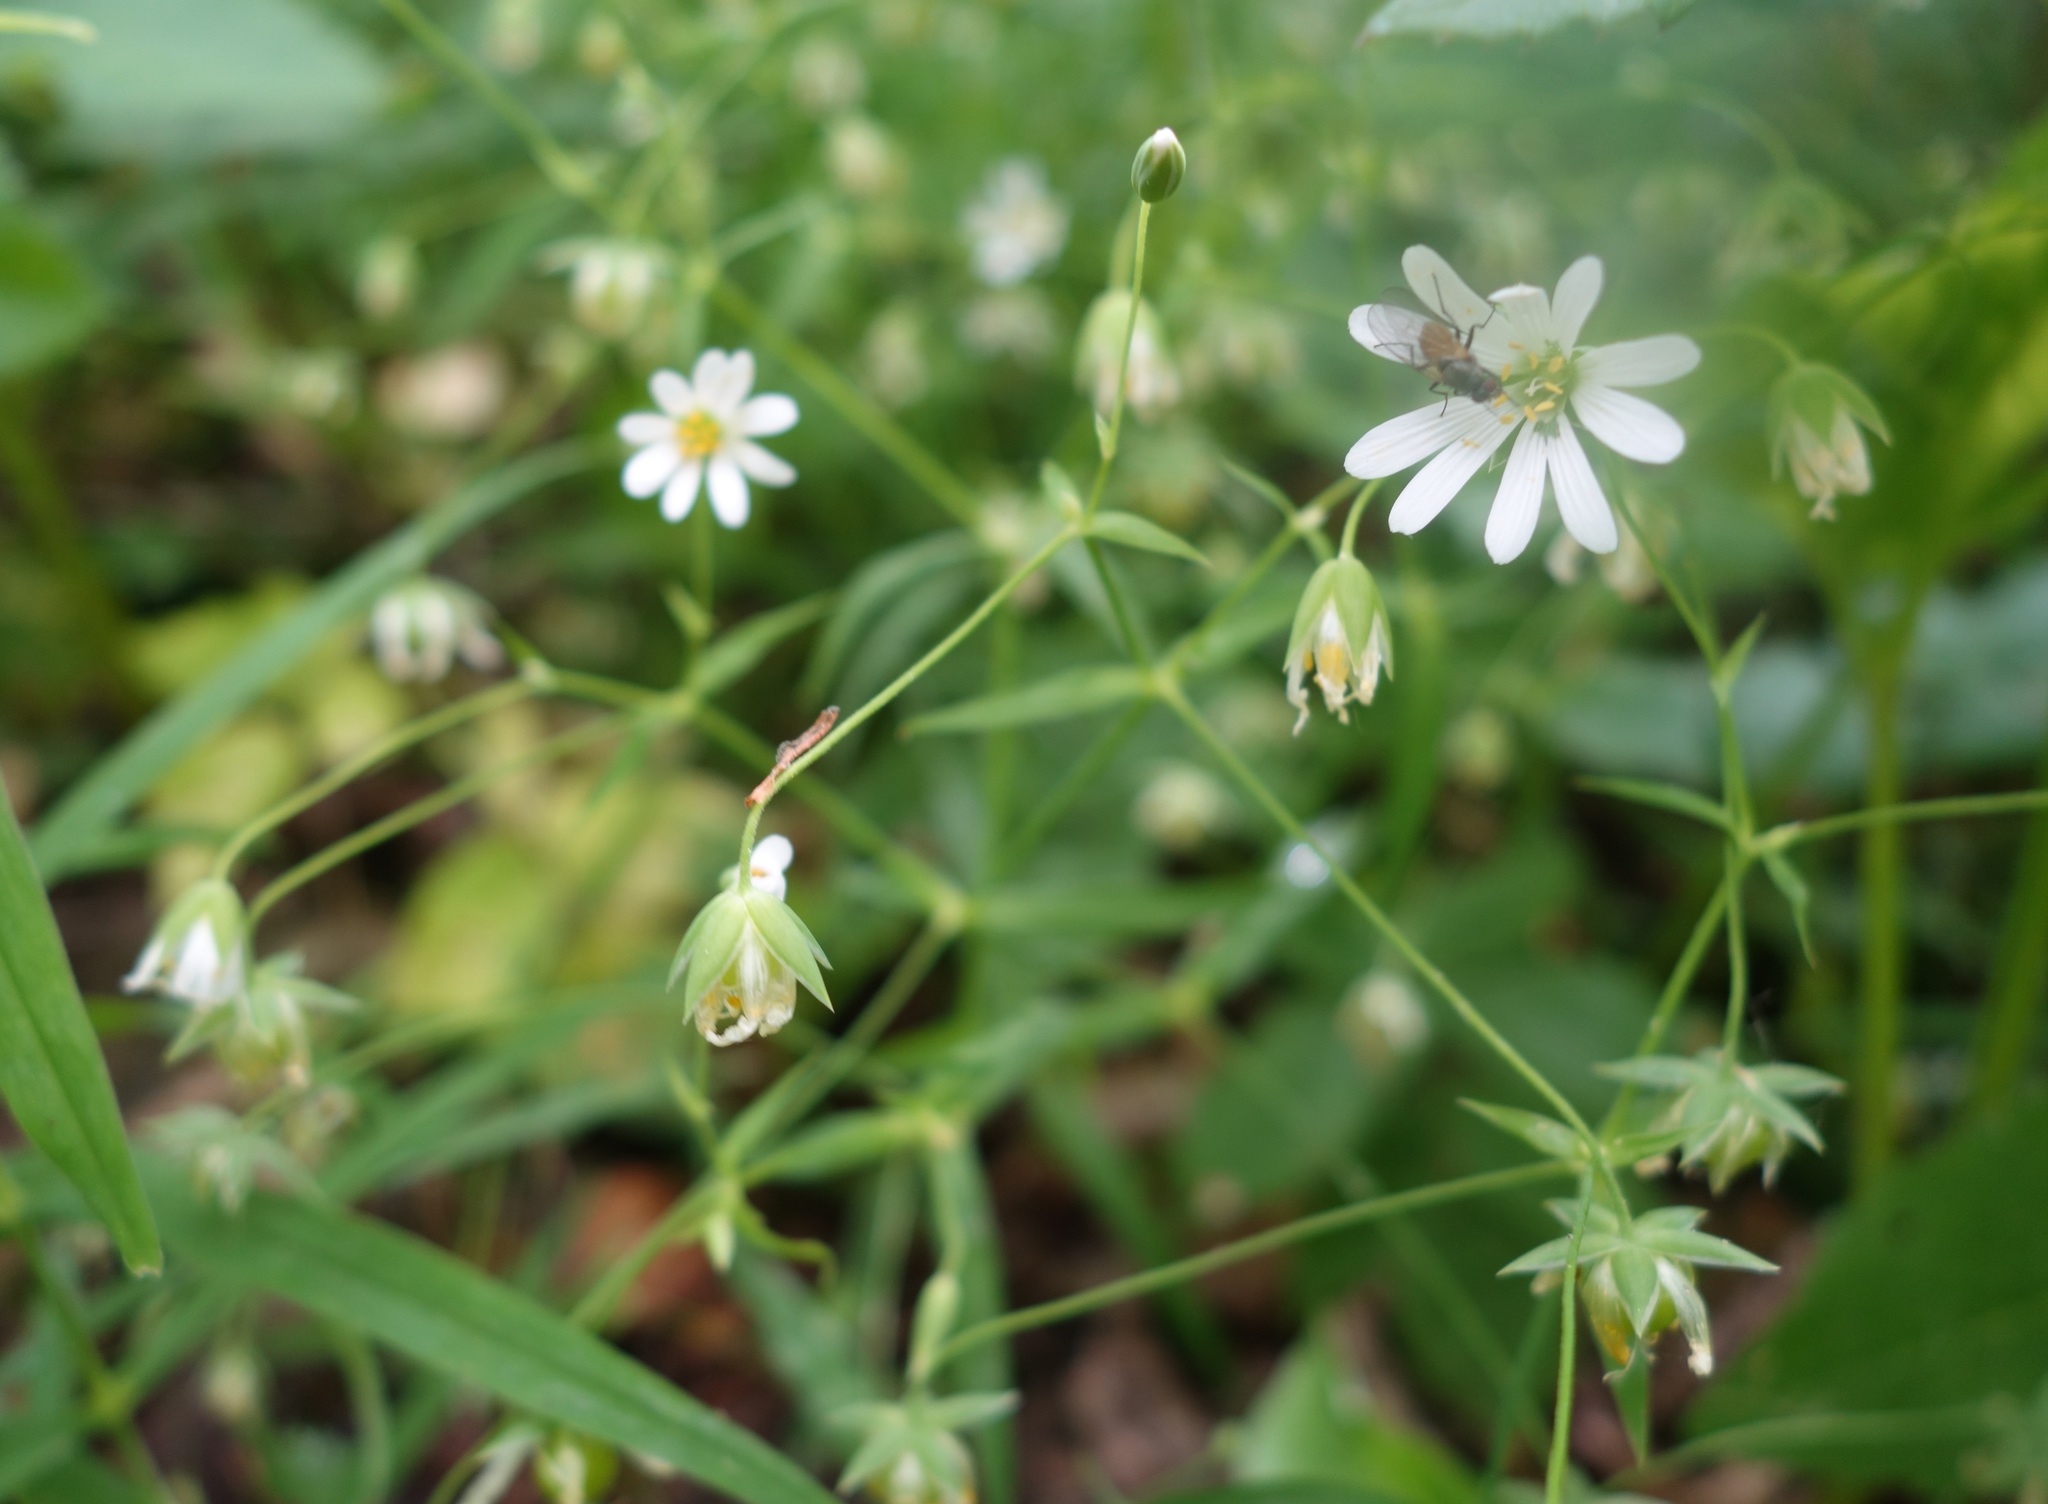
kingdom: Plantae
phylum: Tracheophyta
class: Magnoliopsida
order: Caryophyllales
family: Caryophyllaceae
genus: Rabelera
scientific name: Rabelera holostea
